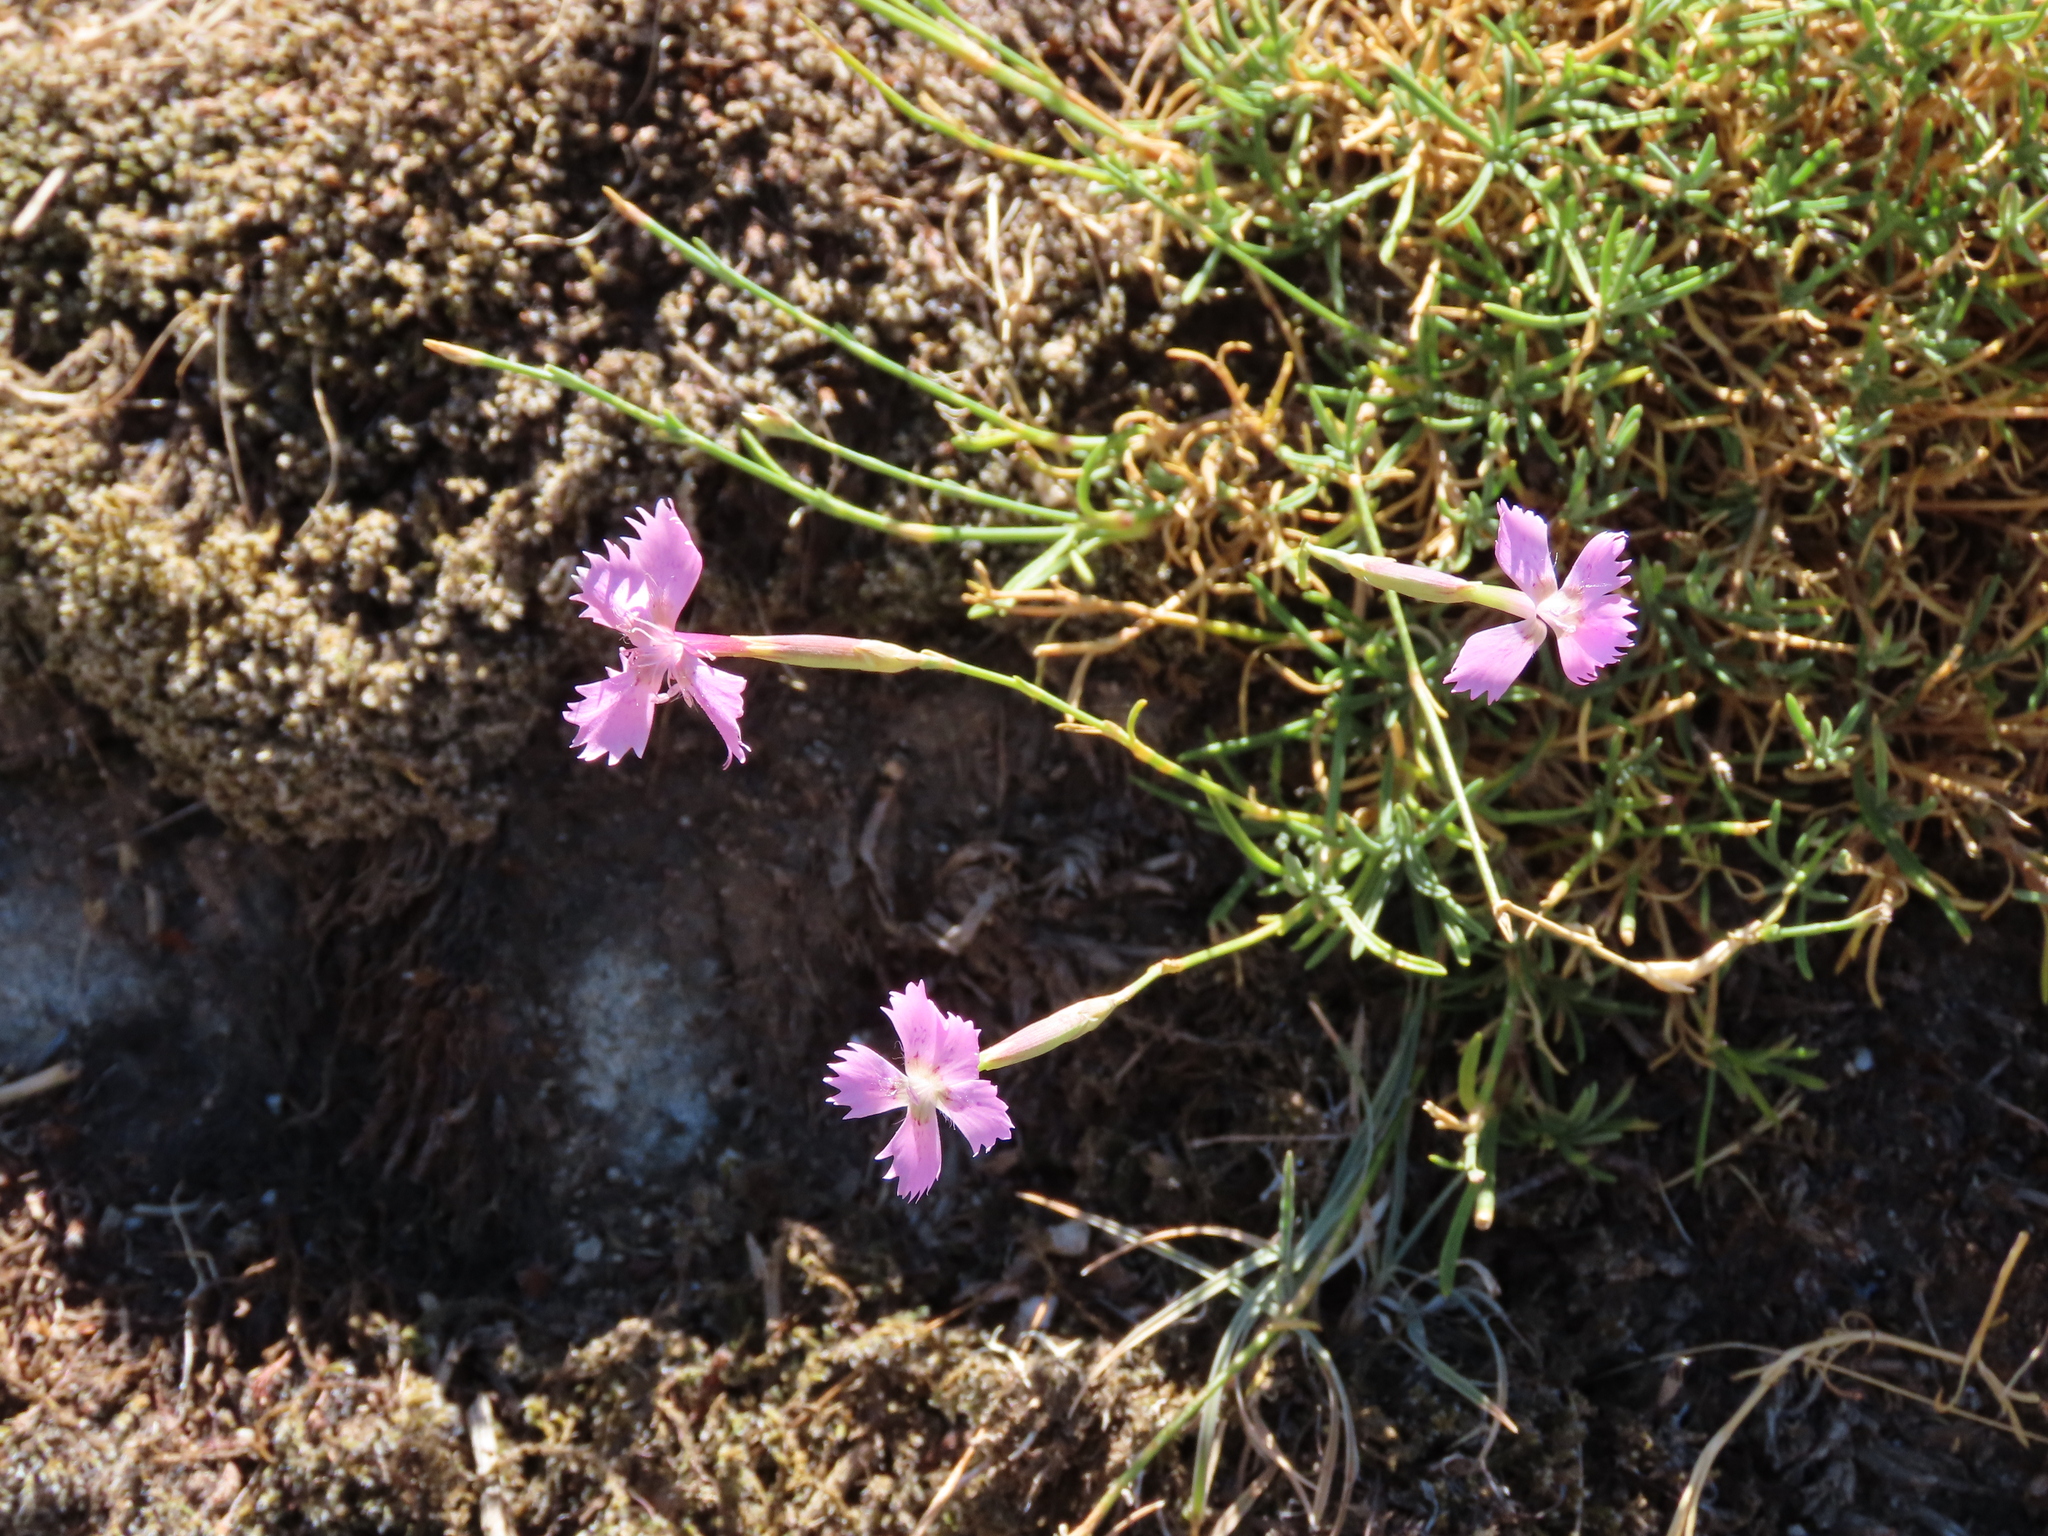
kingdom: Plantae
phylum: Tracheophyta
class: Magnoliopsida
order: Caryophyllales
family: Caryophyllaceae
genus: Dianthus
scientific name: Dianthus lusitanus
